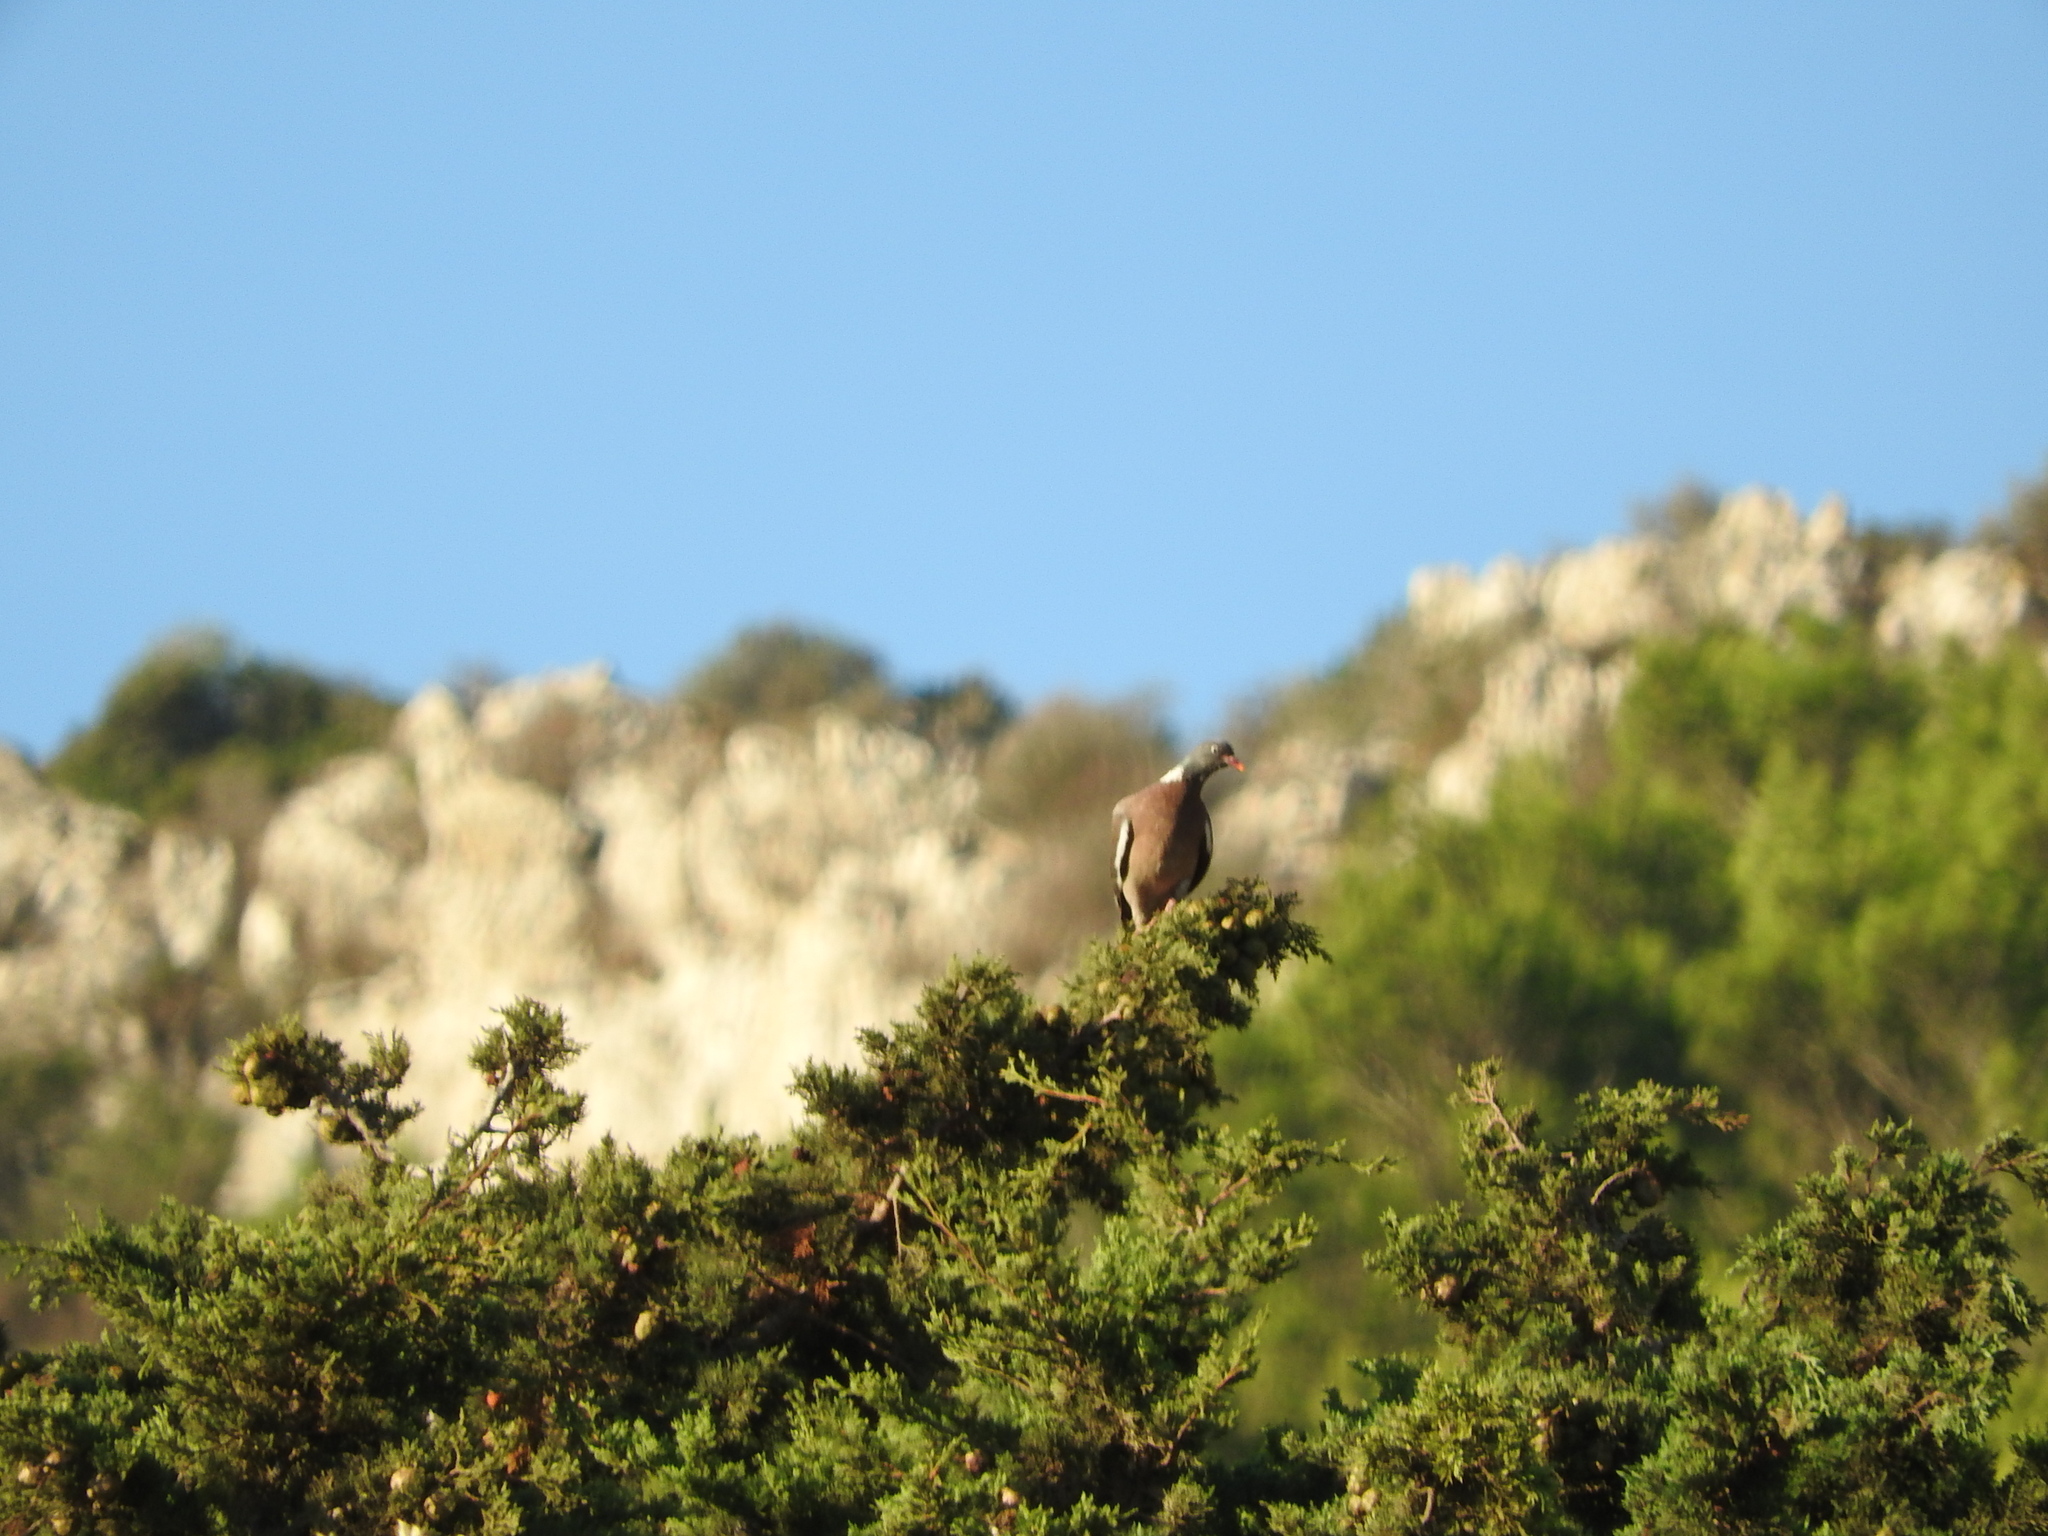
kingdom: Animalia
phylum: Chordata
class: Aves
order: Columbiformes
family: Columbidae
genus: Columba
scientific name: Columba palumbus
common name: Common wood pigeon
